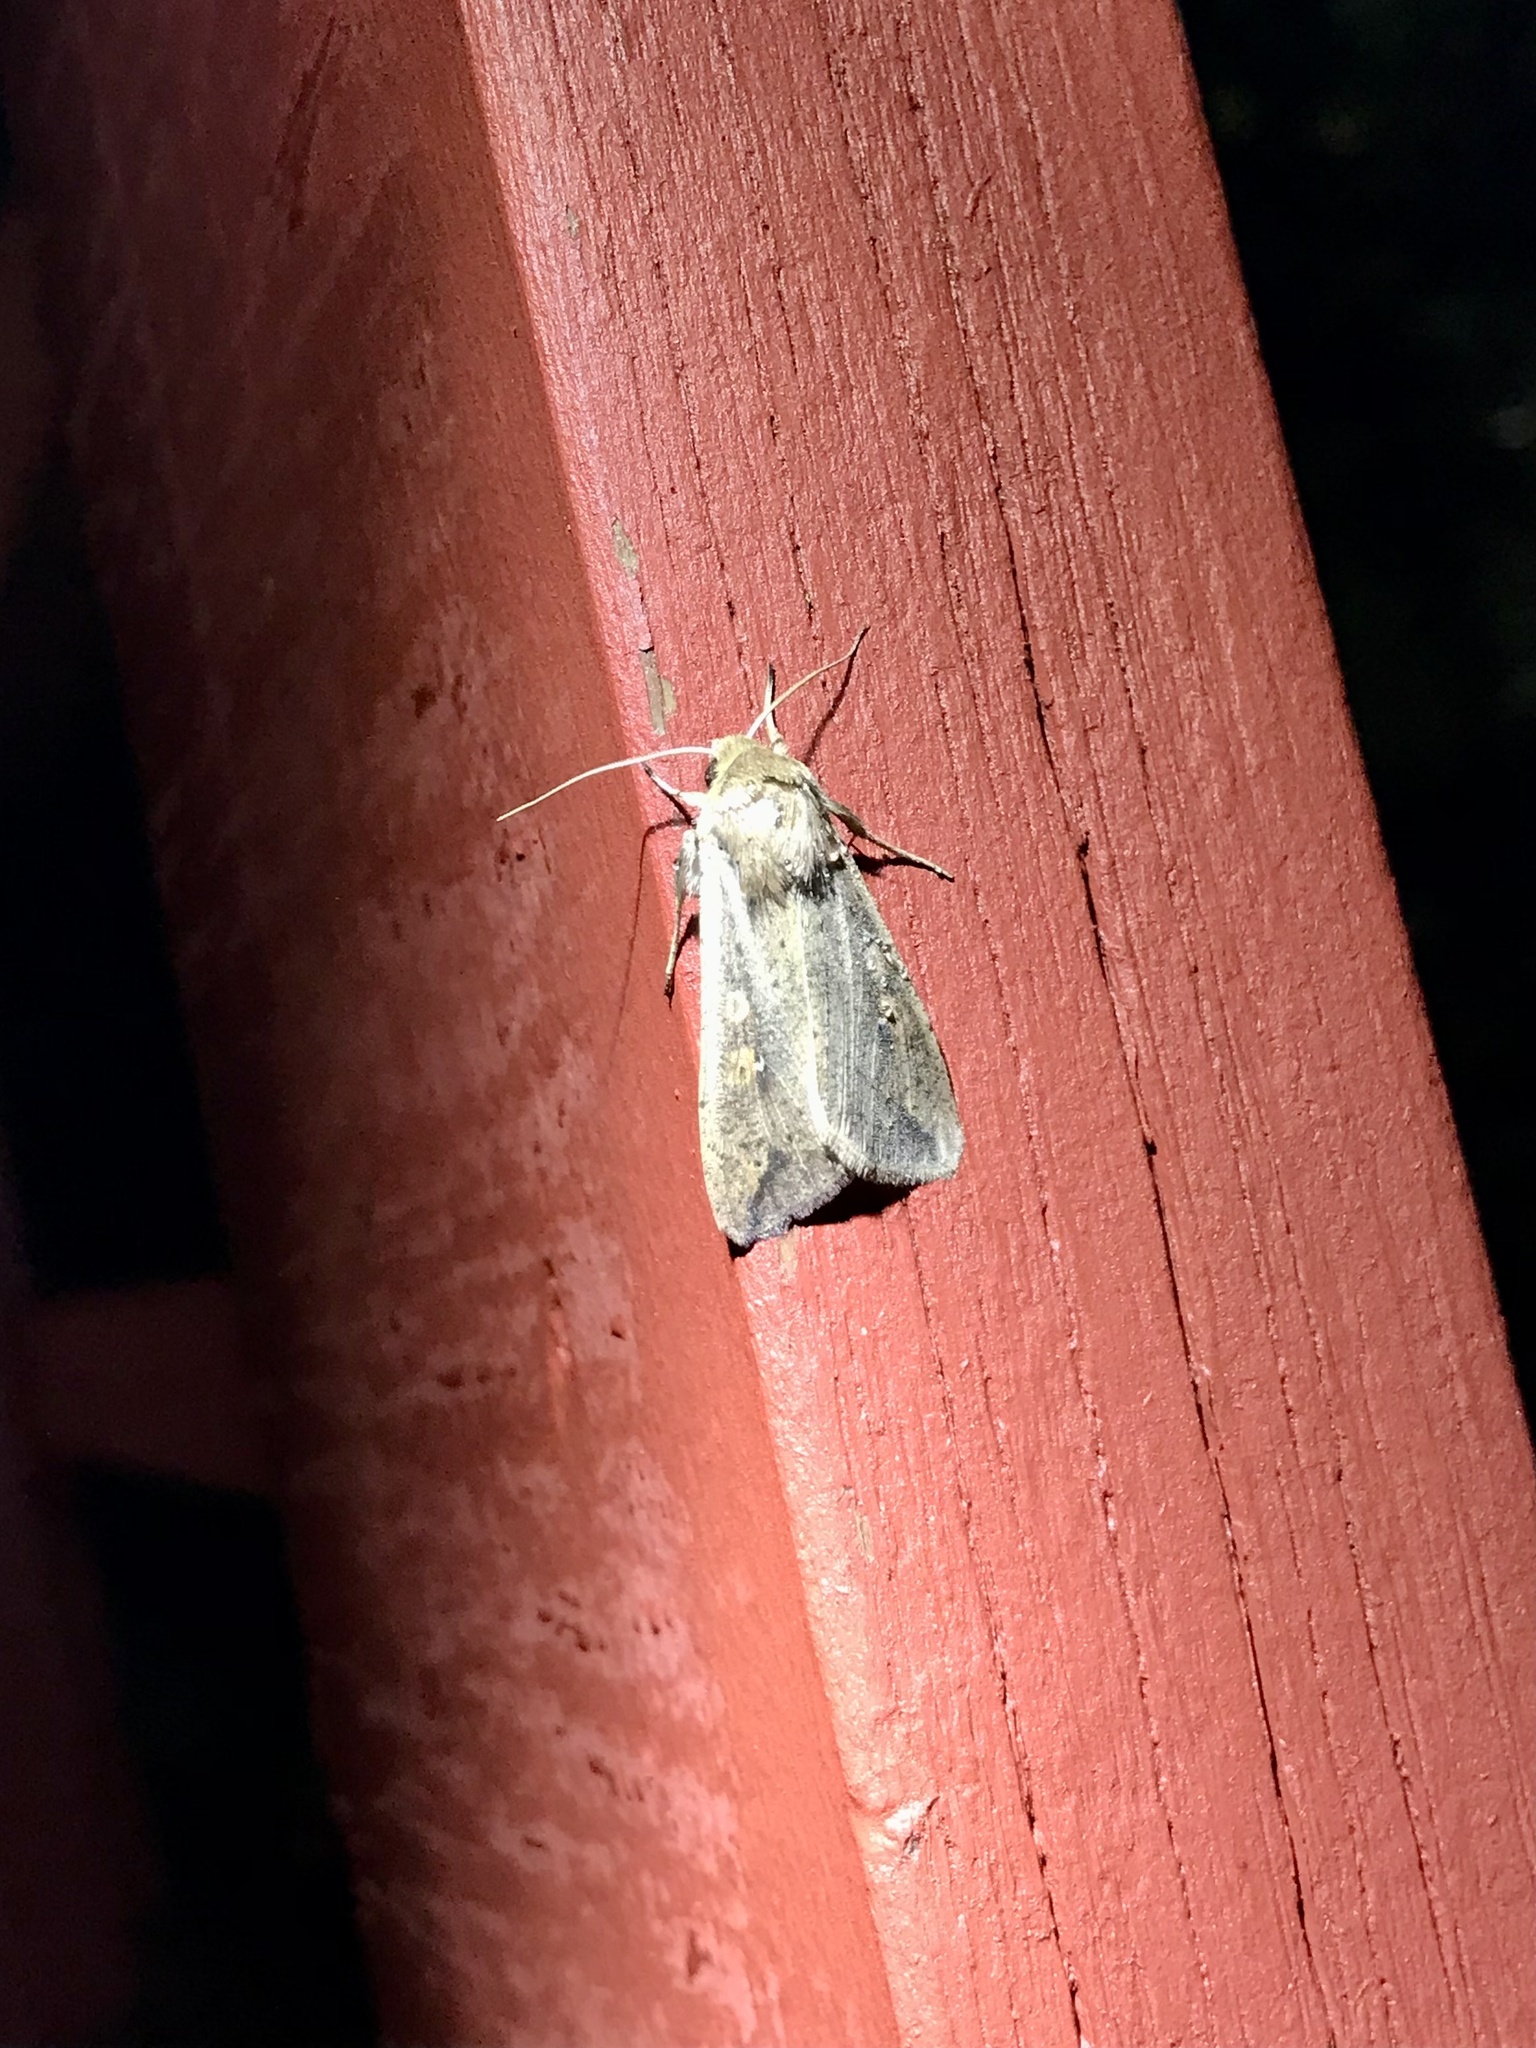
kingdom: Animalia
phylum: Arthropoda
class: Insecta
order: Lepidoptera
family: Noctuidae
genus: Mythimna
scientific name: Mythimna unipuncta
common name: White-speck
